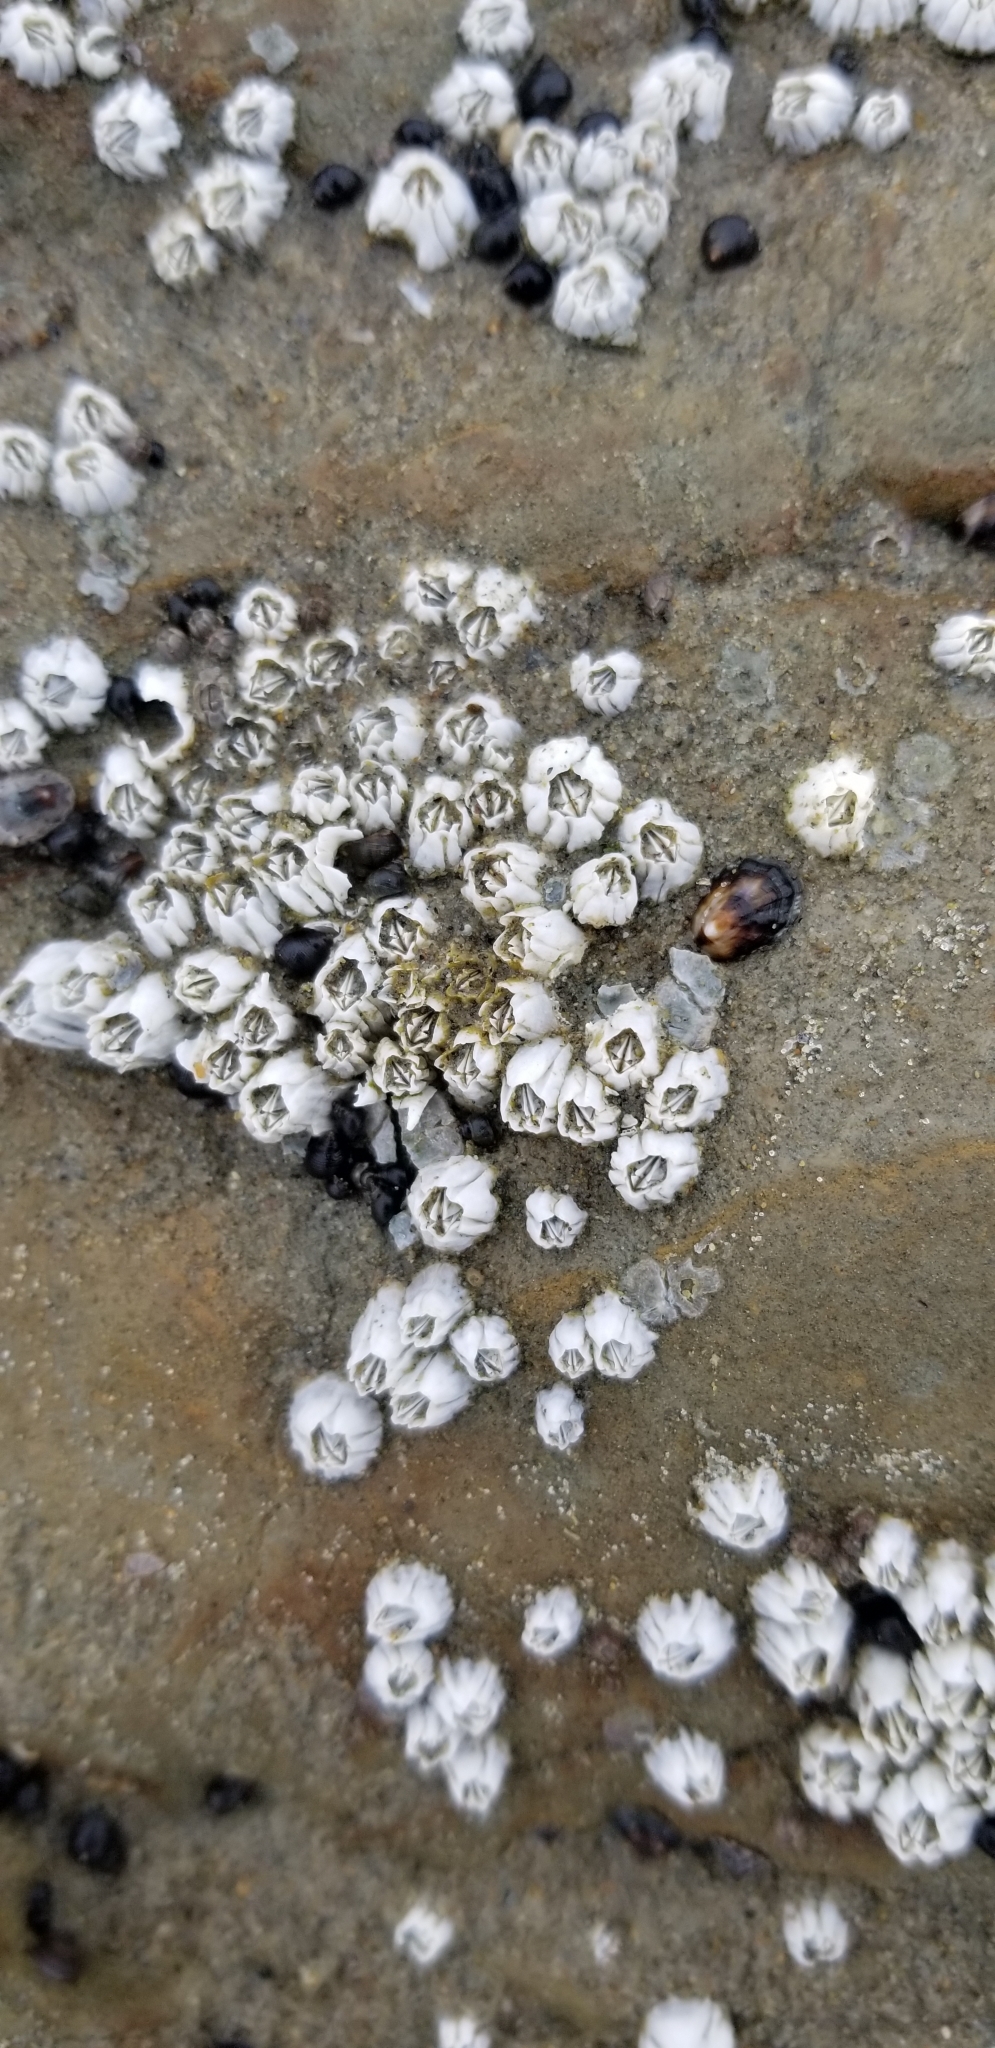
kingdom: Animalia
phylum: Arthropoda
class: Maxillopoda
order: Sessilia
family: Balanidae
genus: Balanus
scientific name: Balanus glandula
